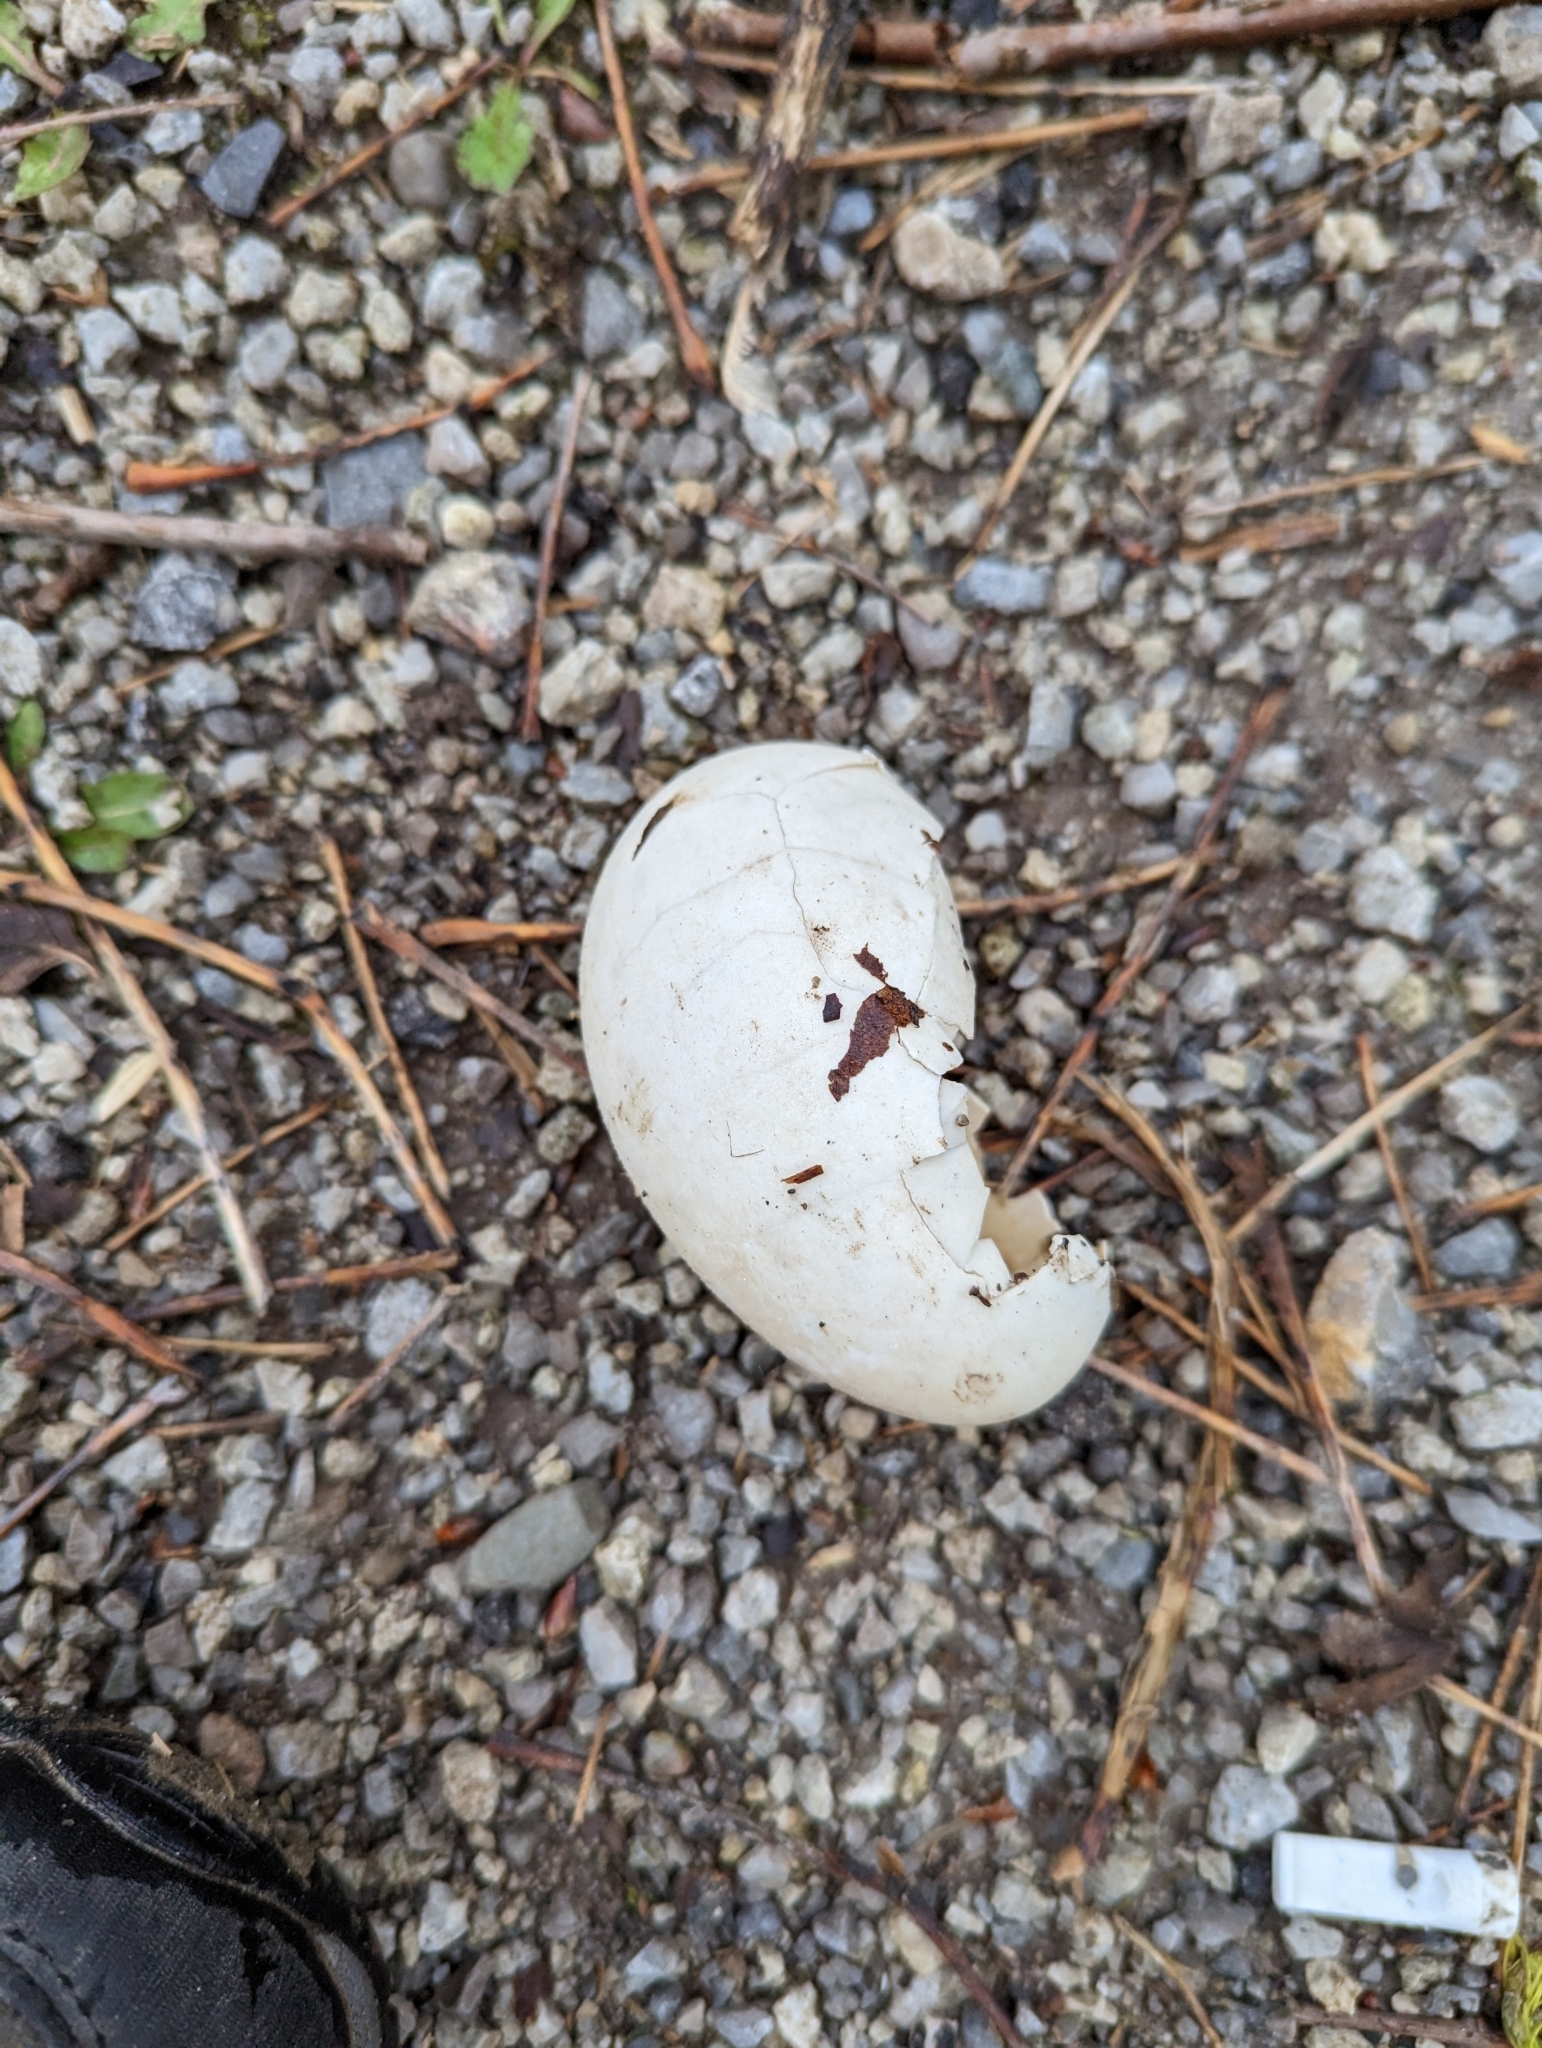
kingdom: Animalia
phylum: Chordata
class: Aves
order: Anseriformes
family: Anatidae
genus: Branta
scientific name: Branta canadensis
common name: Canada goose
